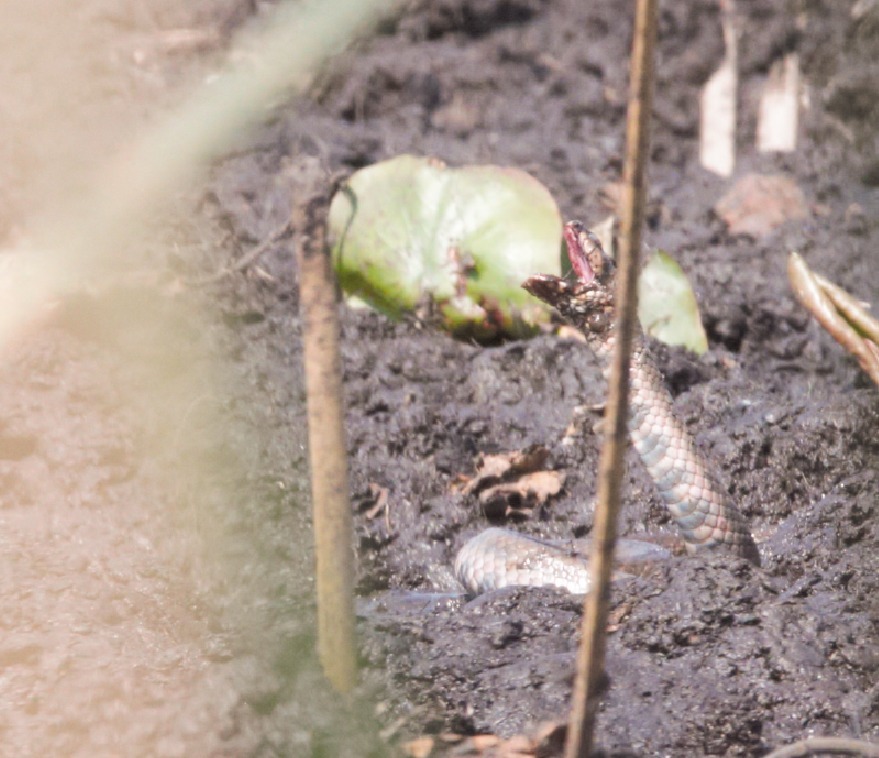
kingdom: Animalia
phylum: Chordata
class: Squamata
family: Colubridae
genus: Helicops
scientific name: Helicops leopardinus
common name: Leopard keelback
